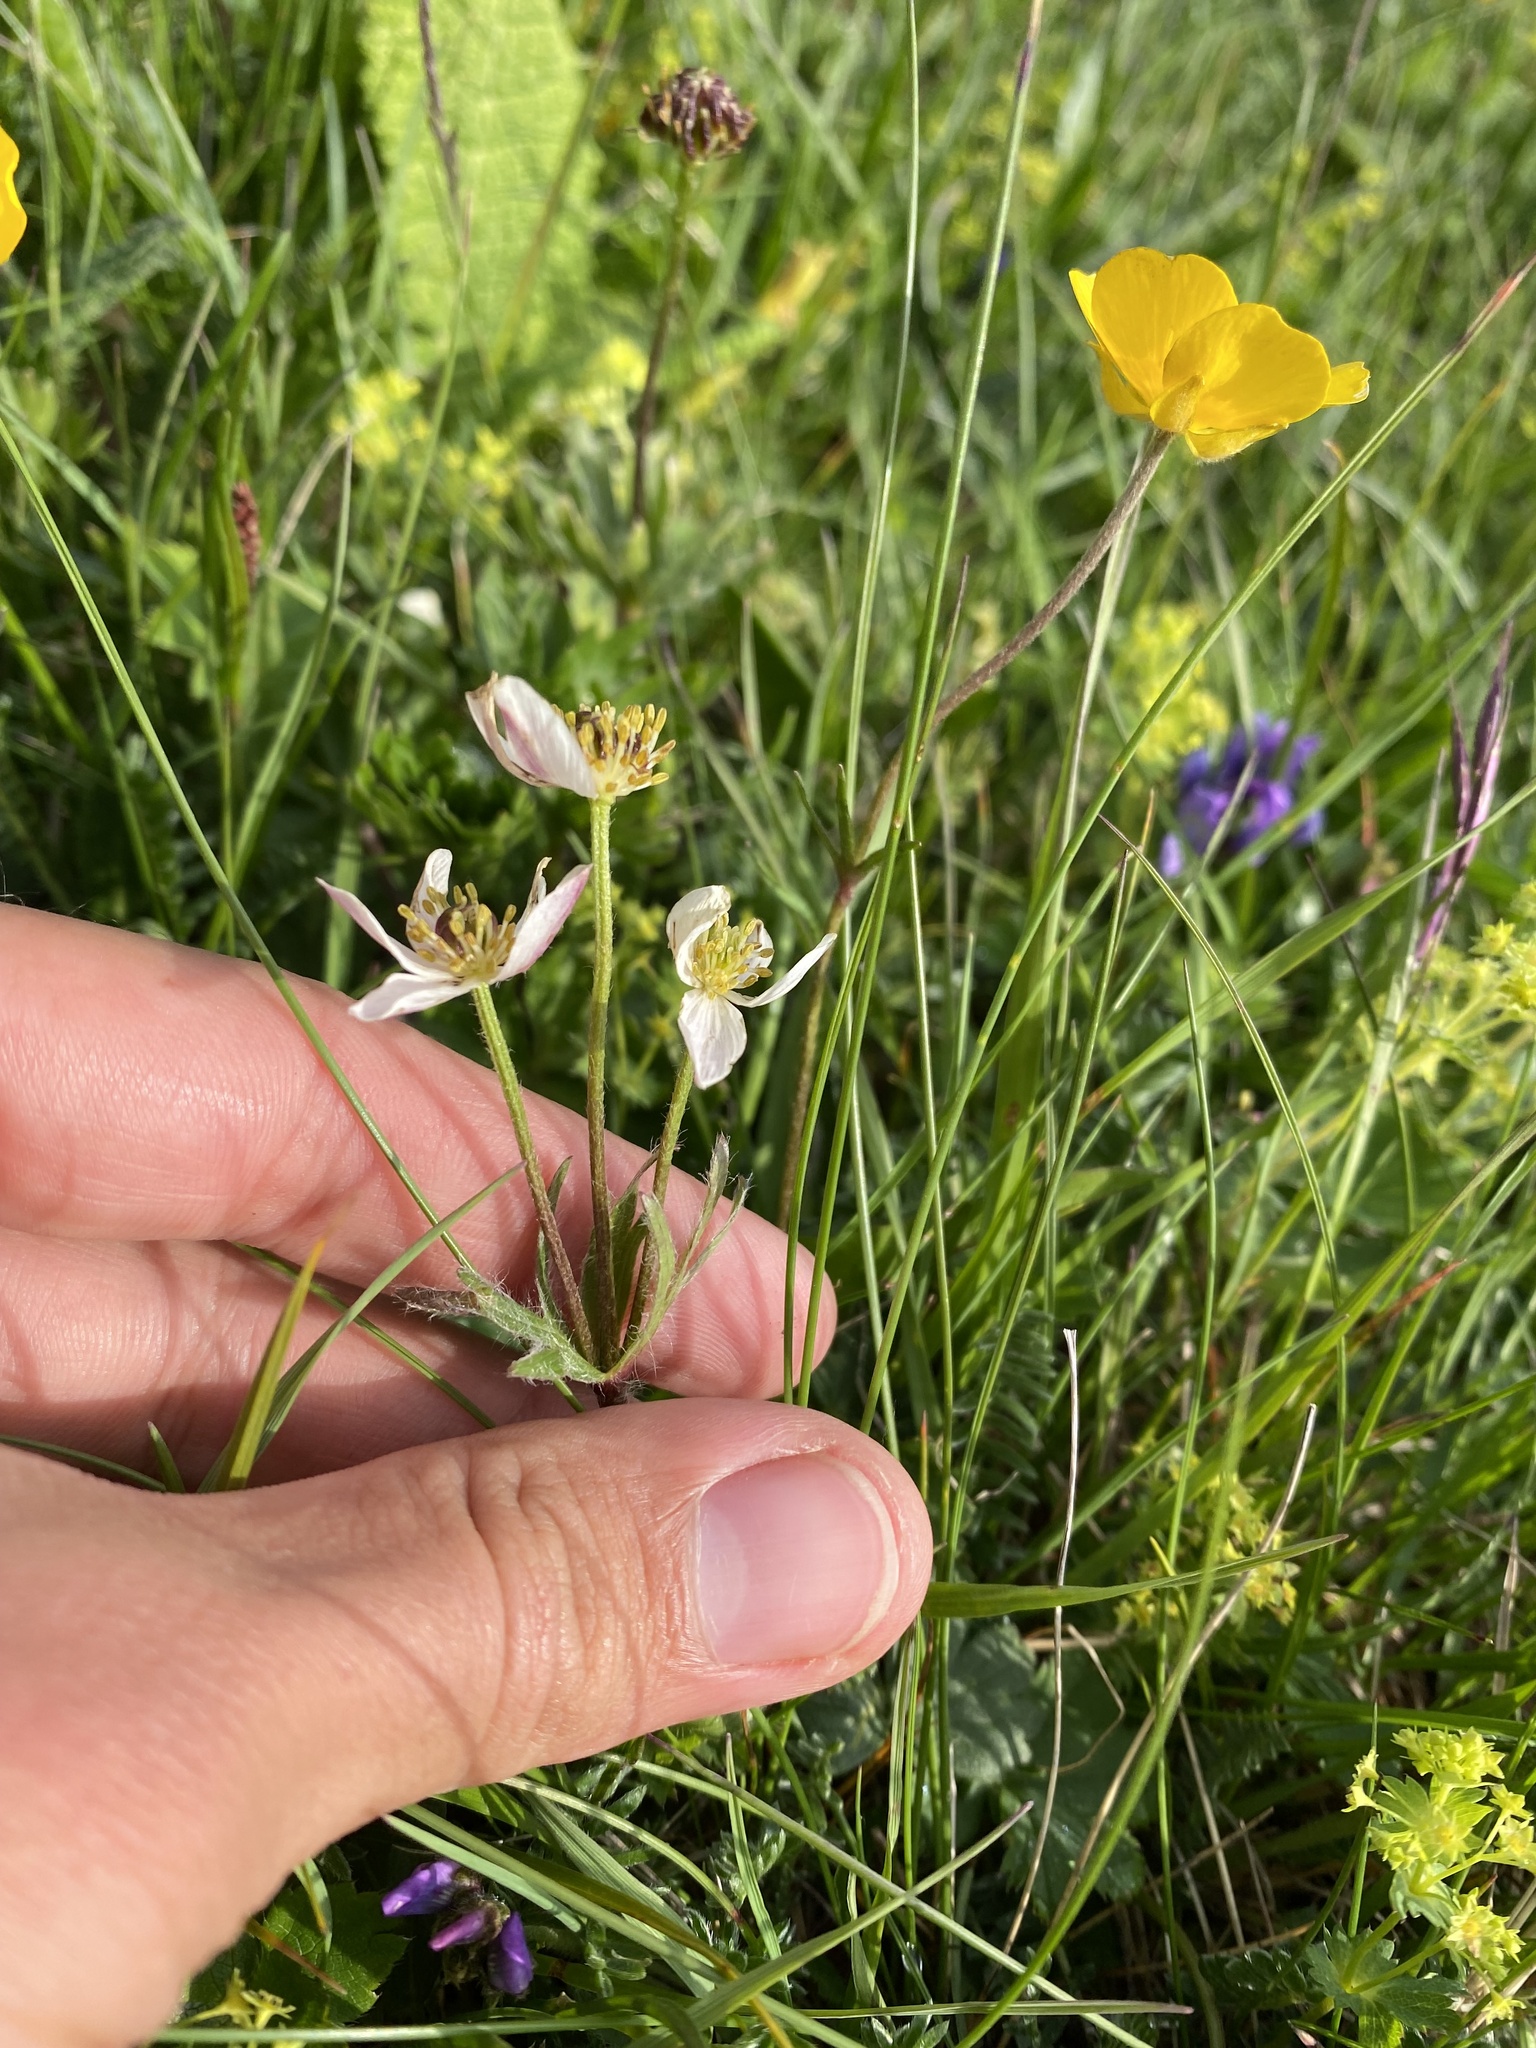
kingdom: Plantae
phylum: Tracheophyta
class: Magnoliopsida
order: Ranunculales
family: Ranunculaceae
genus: Anemonastrum
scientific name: Anemonastrum narcissiflorum
